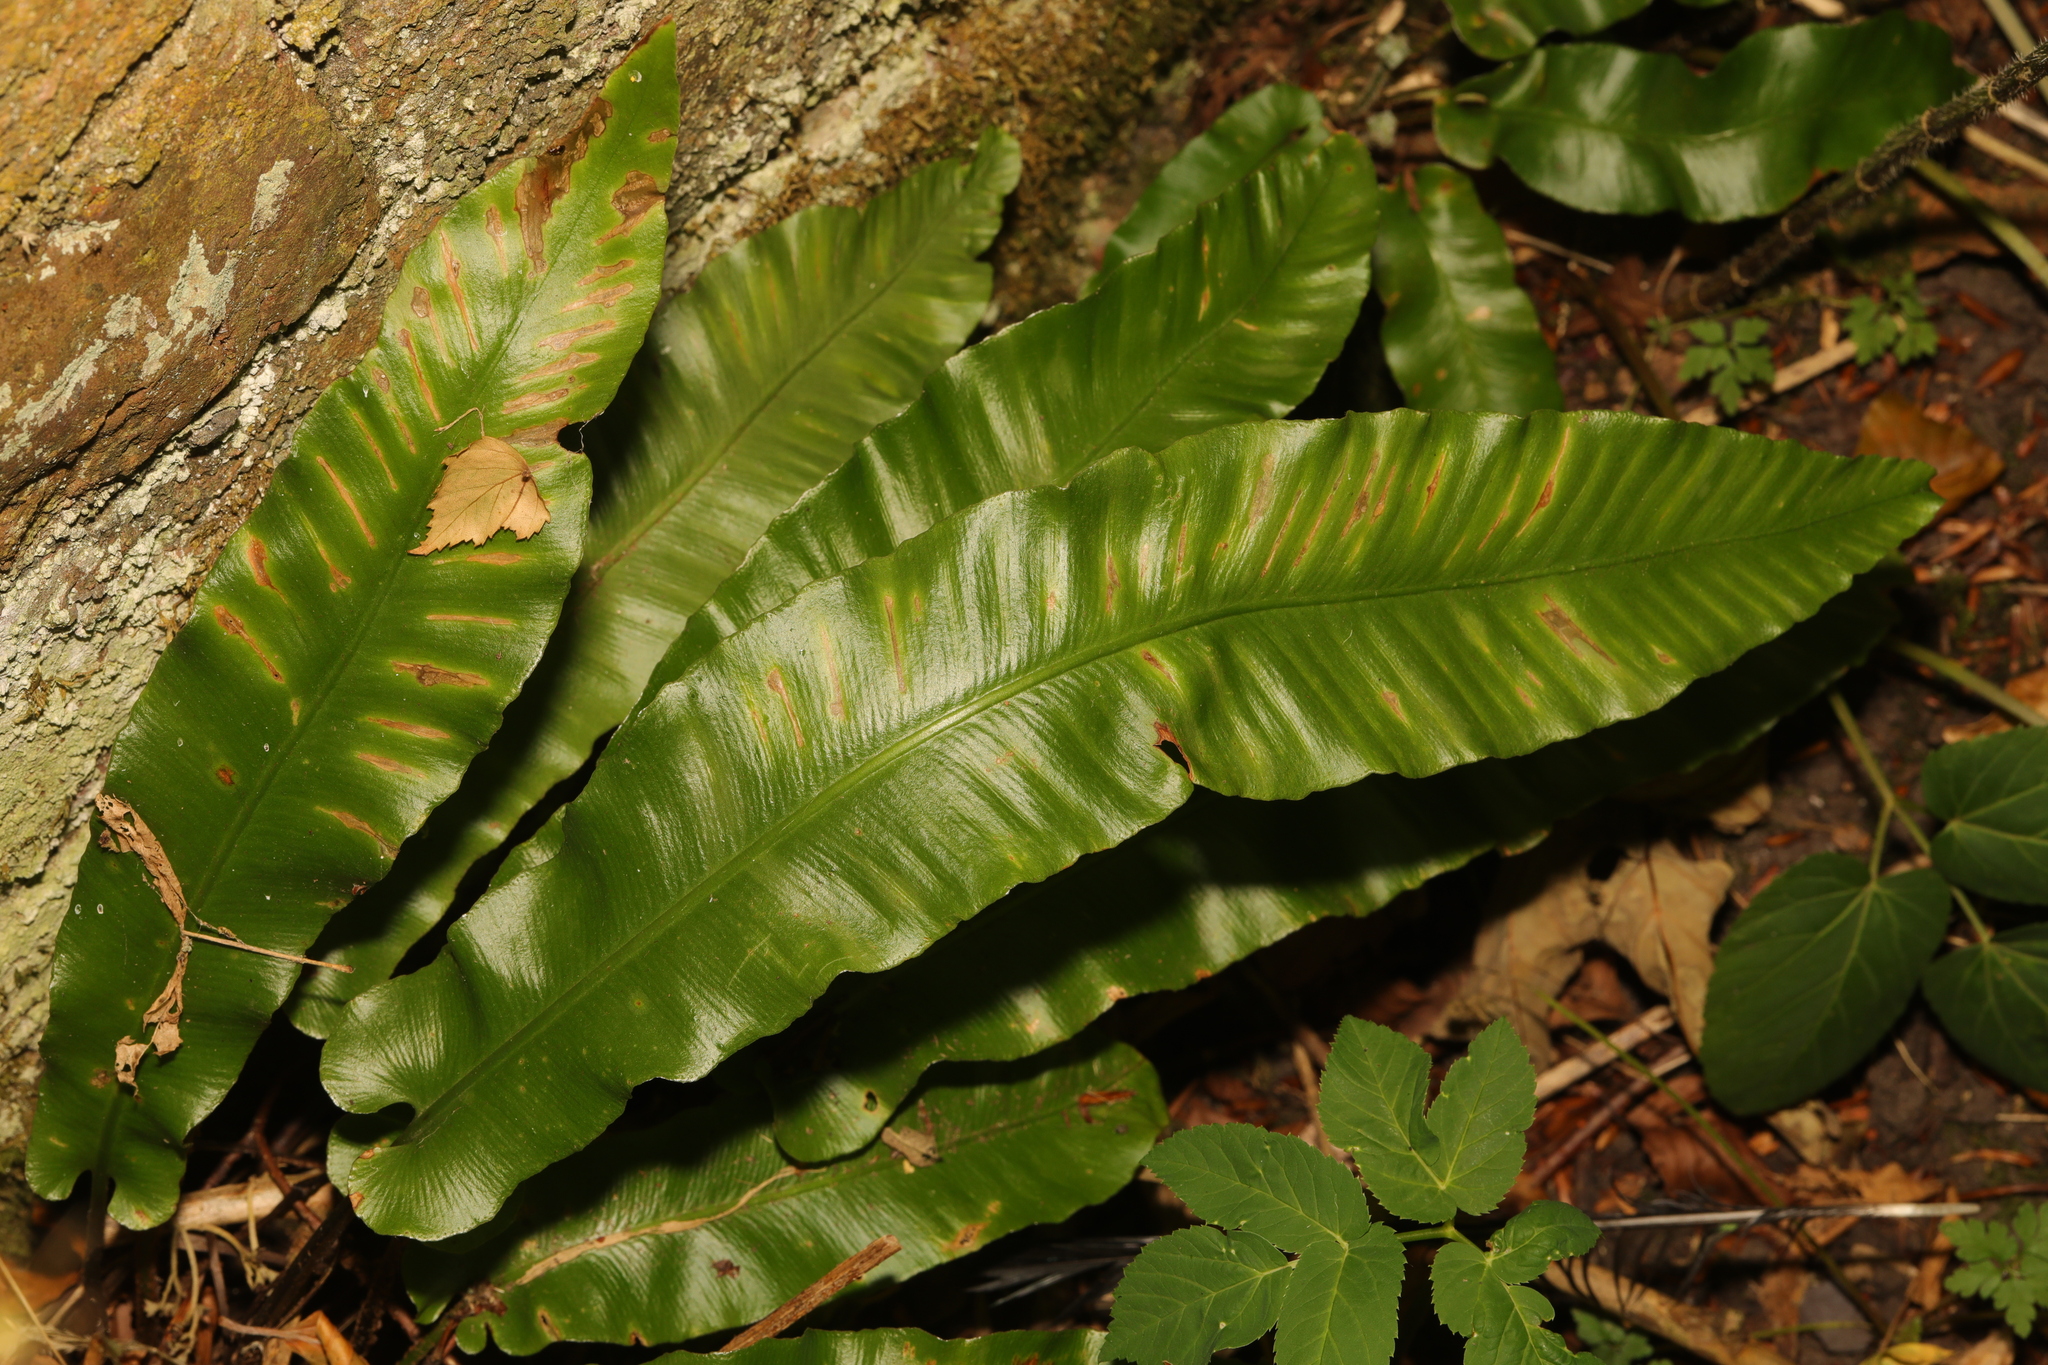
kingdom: Plantae
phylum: Tracheophyta
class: Polypodiopsida
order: Polypodiales
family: Aspleniaceae
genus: Asplenium
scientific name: Asplenium scolopendrium
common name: Hart's-tongue fern
